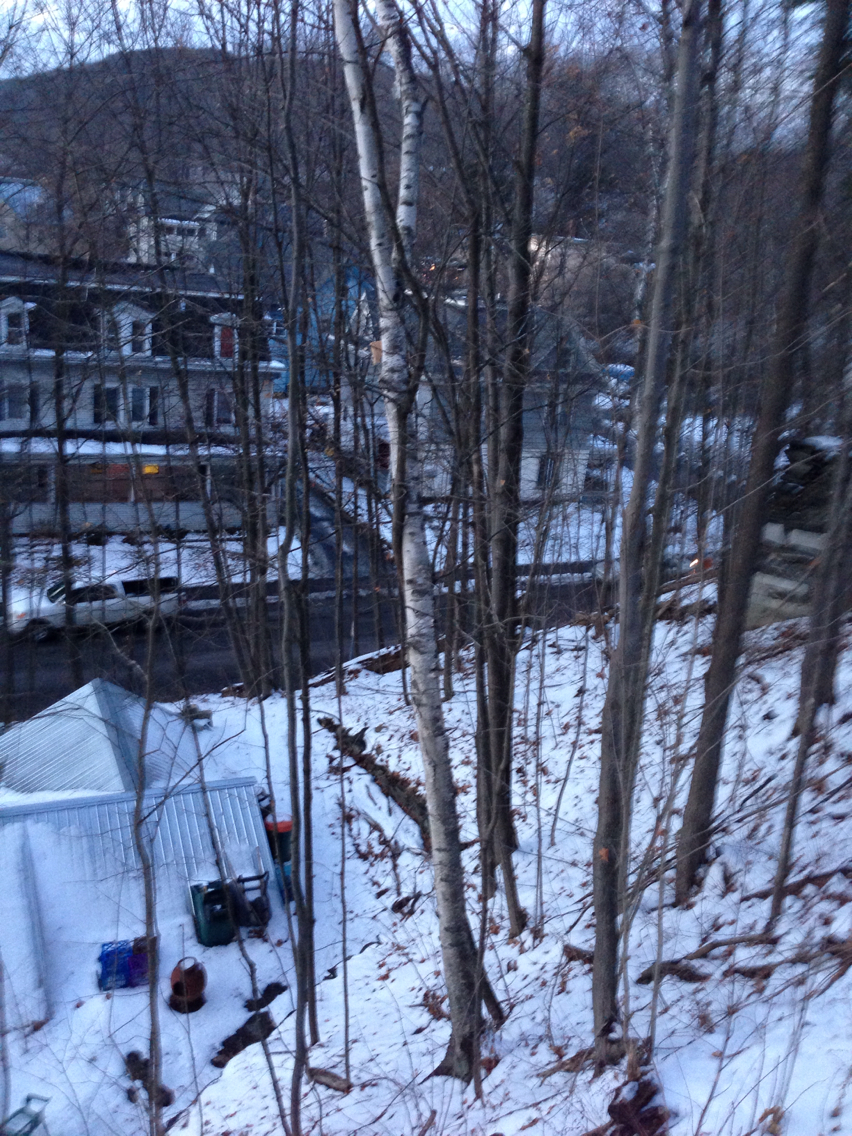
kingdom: Plantae
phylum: Tracheophyta
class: Magnoliopsida
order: Fagales
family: Betulaceae
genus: Betula
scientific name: Betula papyrifera
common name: Paper birch
